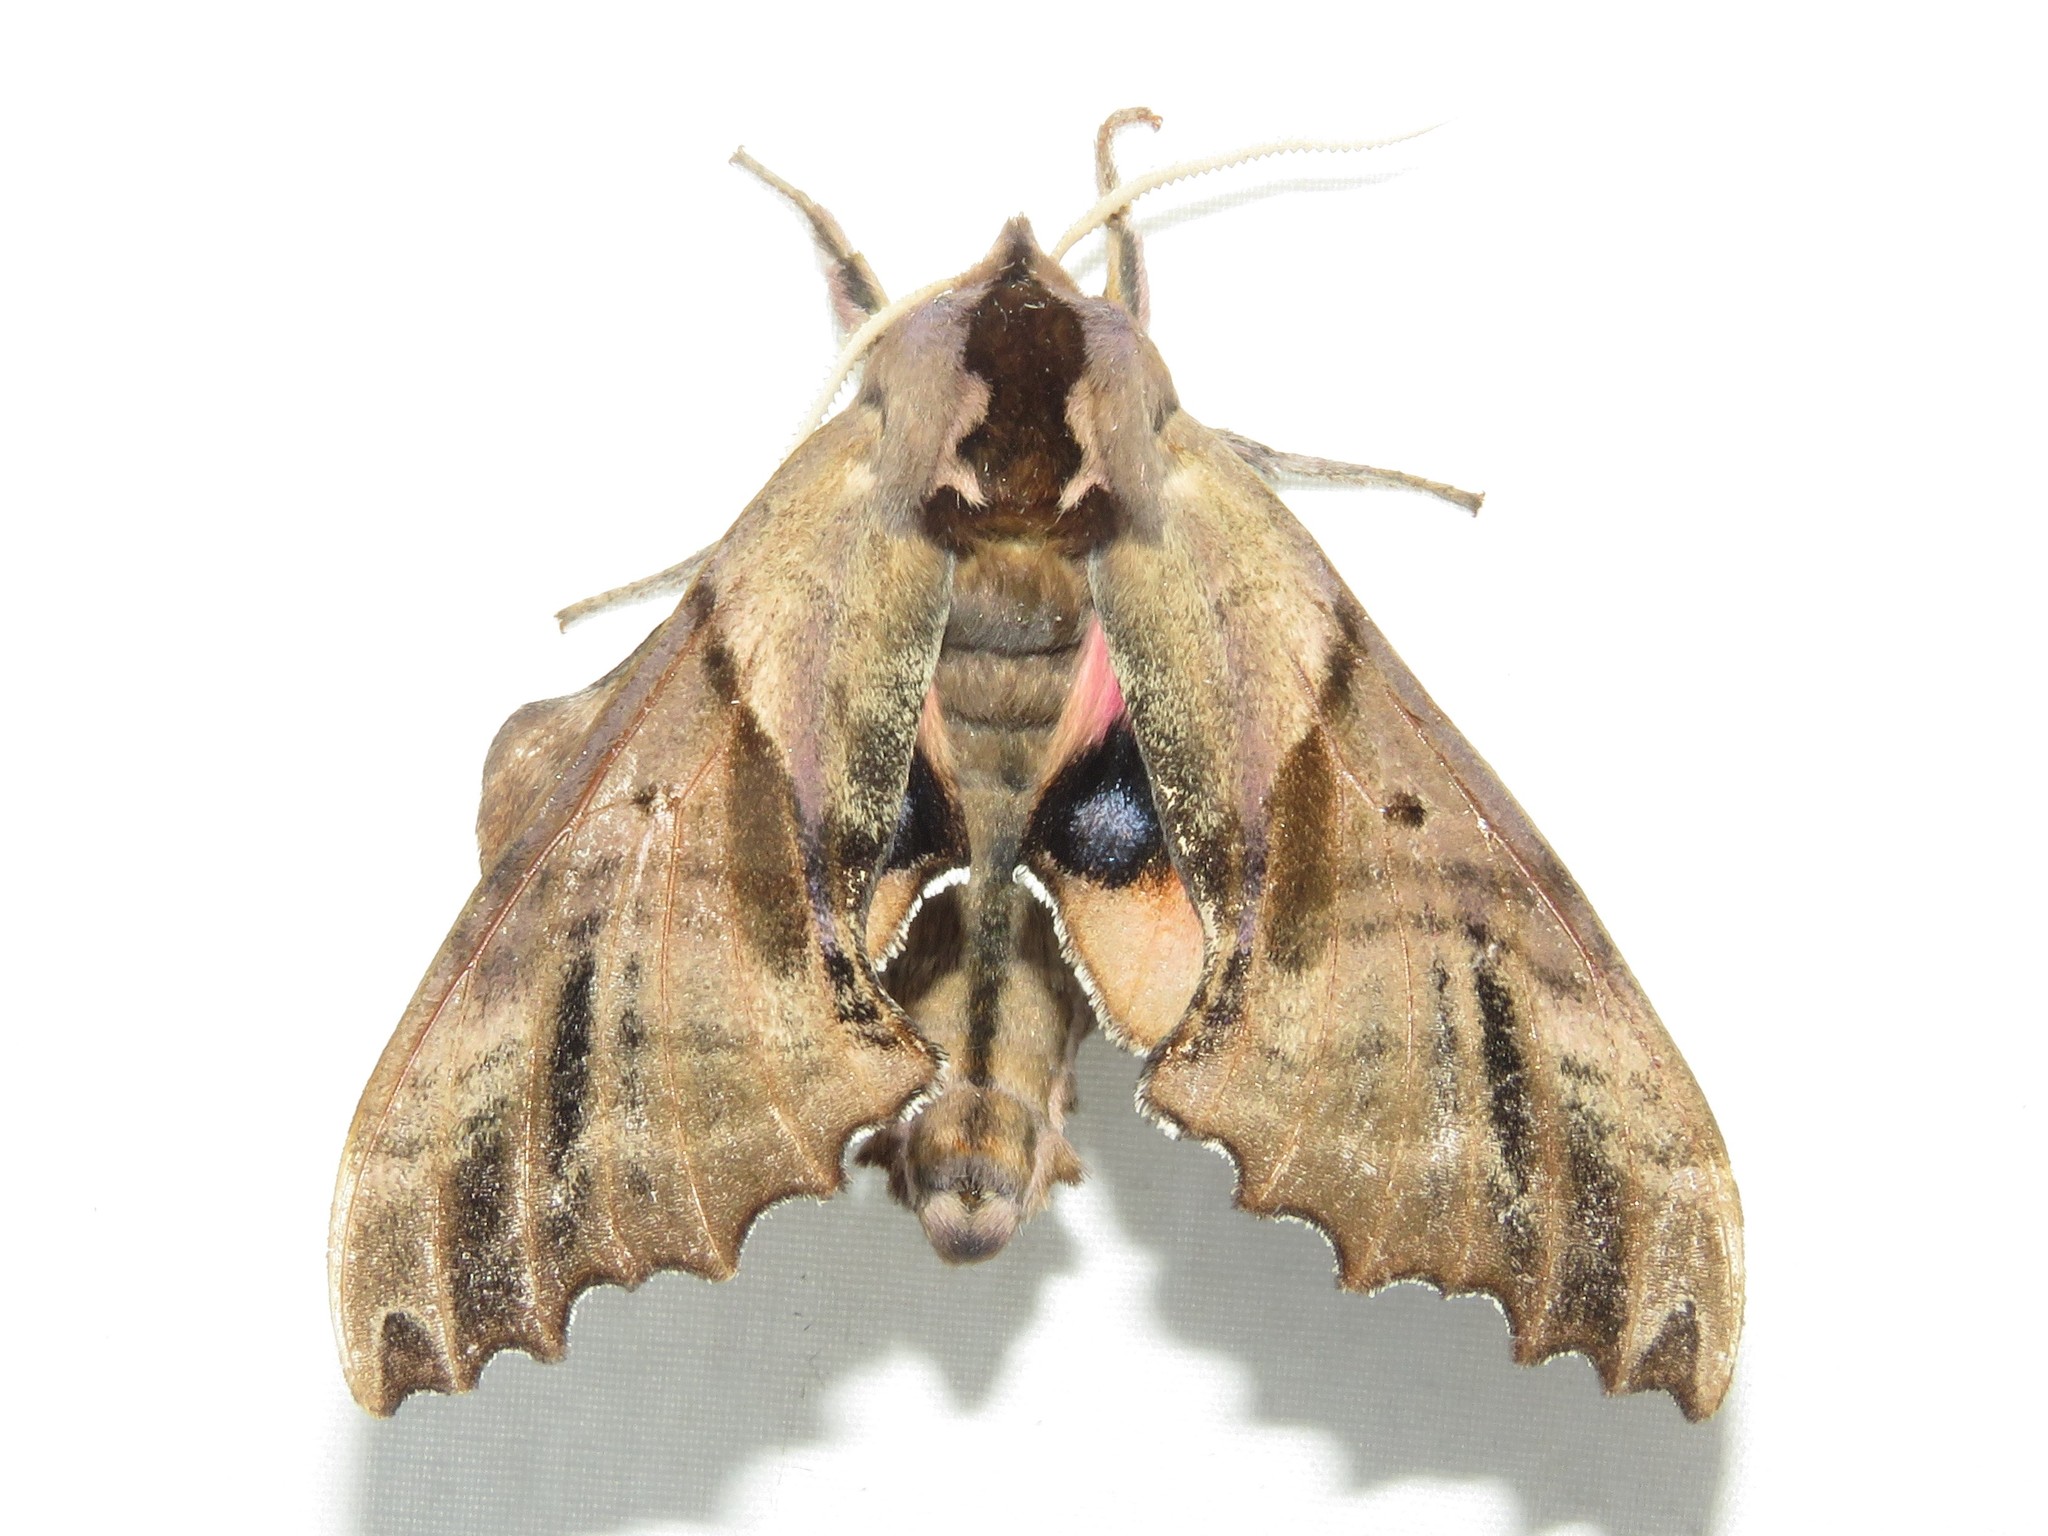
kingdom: Animalia
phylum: Arthropoda
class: Insecta
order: Lepidoptera
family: Sphingidae
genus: Paonias
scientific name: Paonias excaecata
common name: Blind-eyed sphinx
